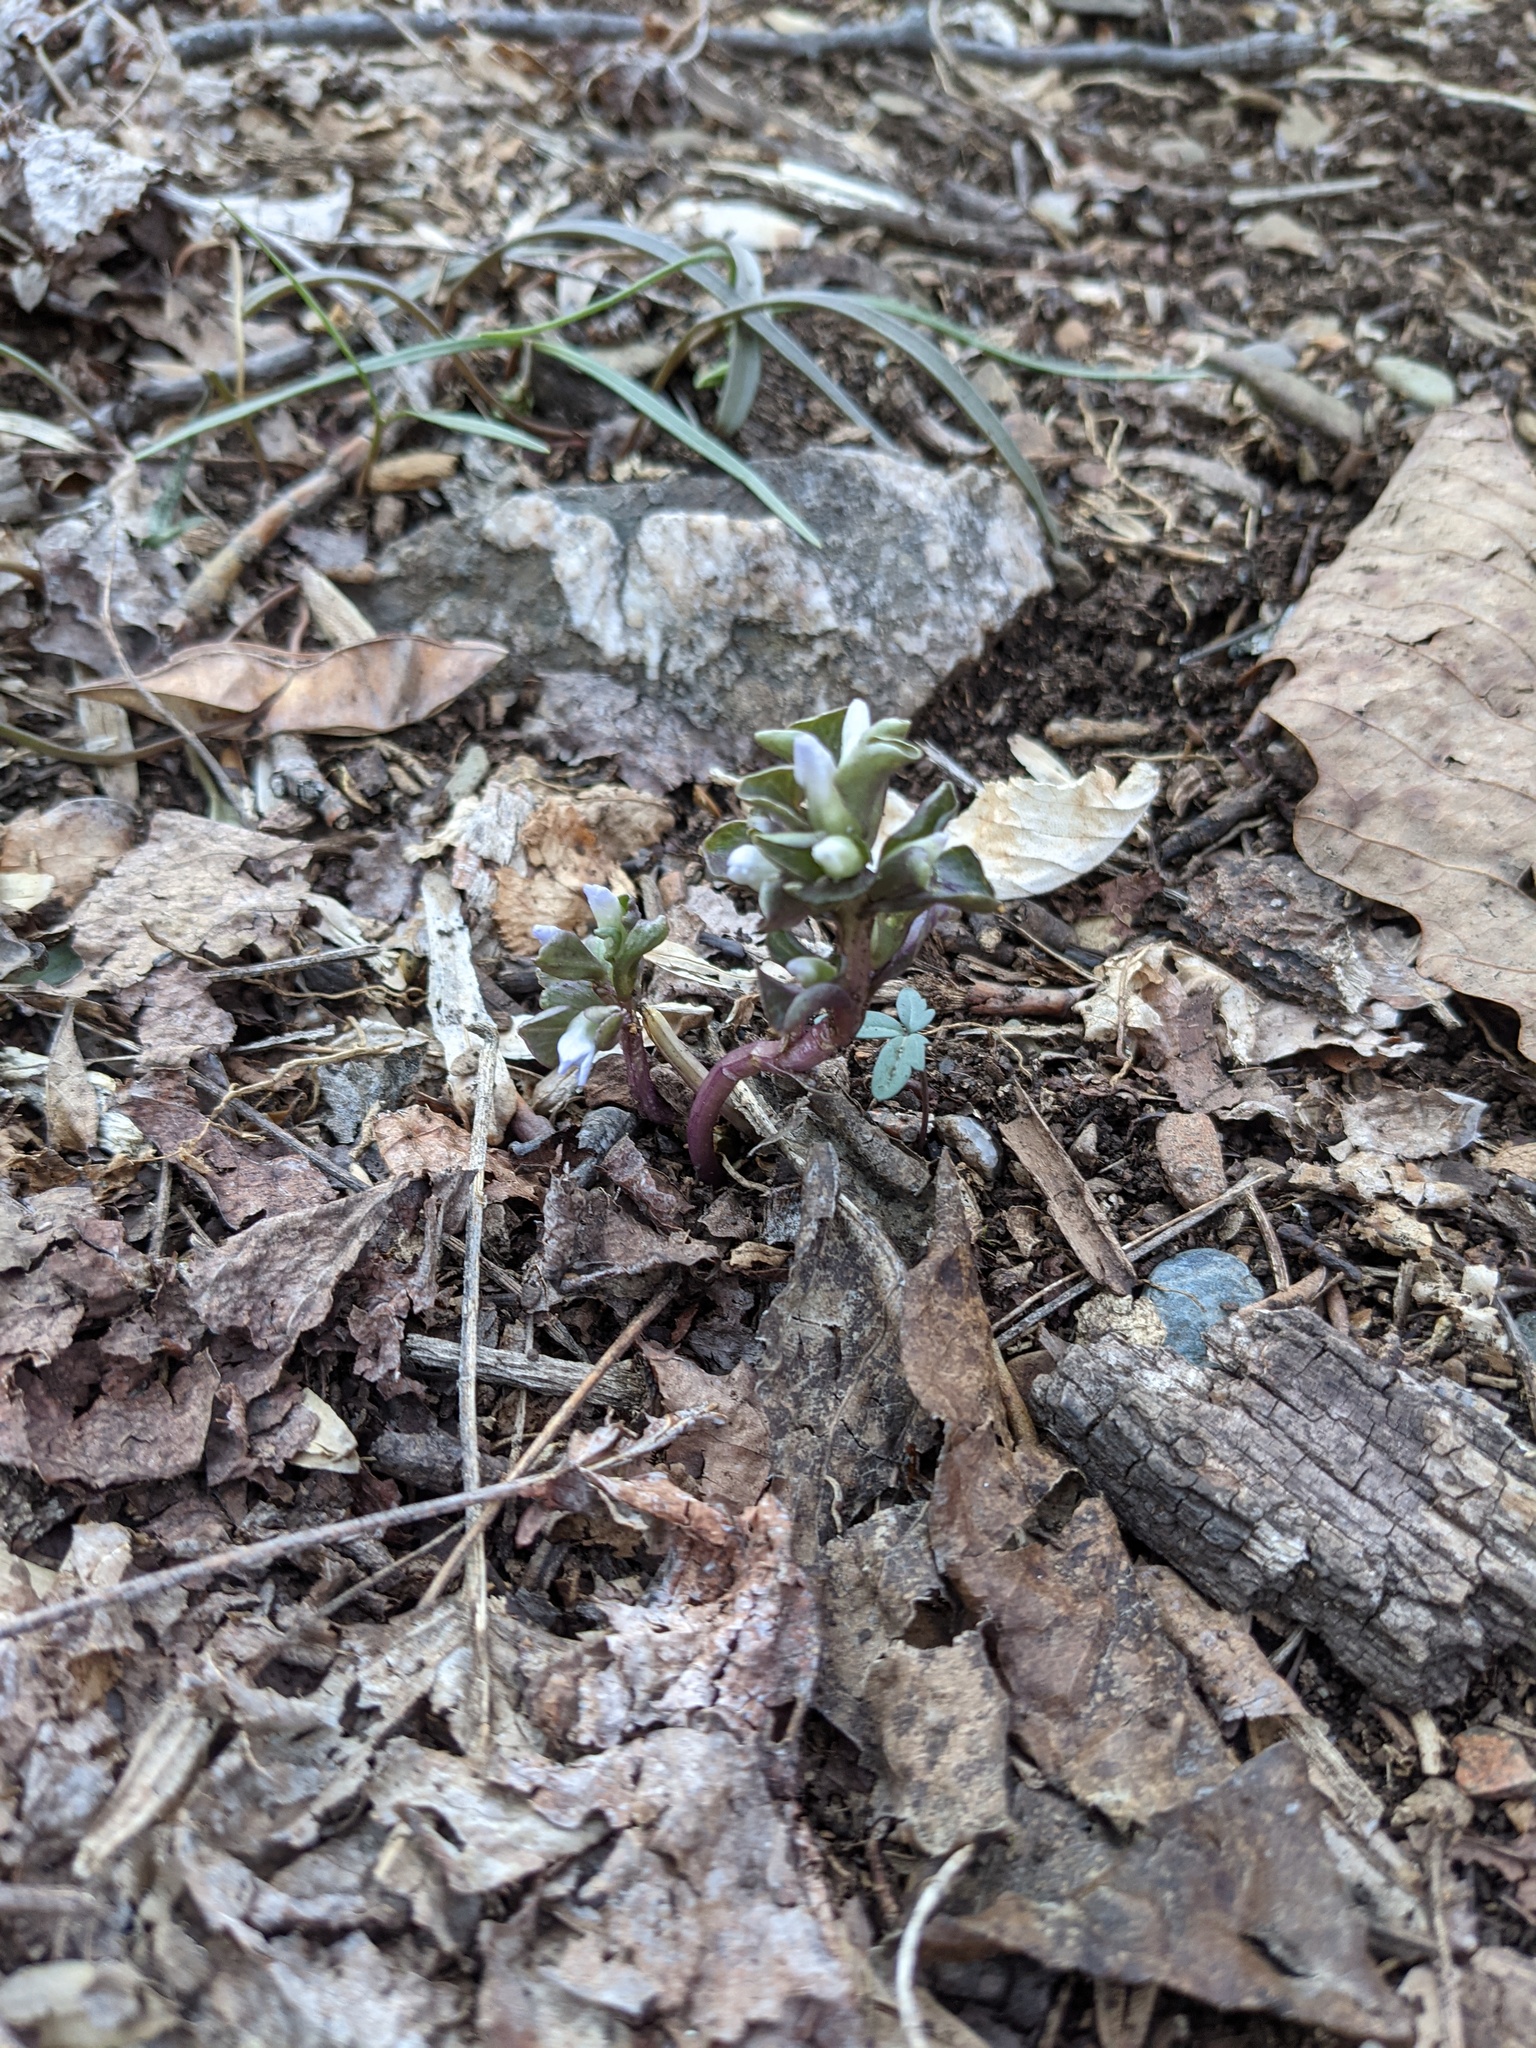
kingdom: Plantae
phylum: Tracheophyta
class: Magnoliopsida
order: Gentianales
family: Gentianaceae
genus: Obolaria
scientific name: Obolaria virginica
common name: Pennywort
